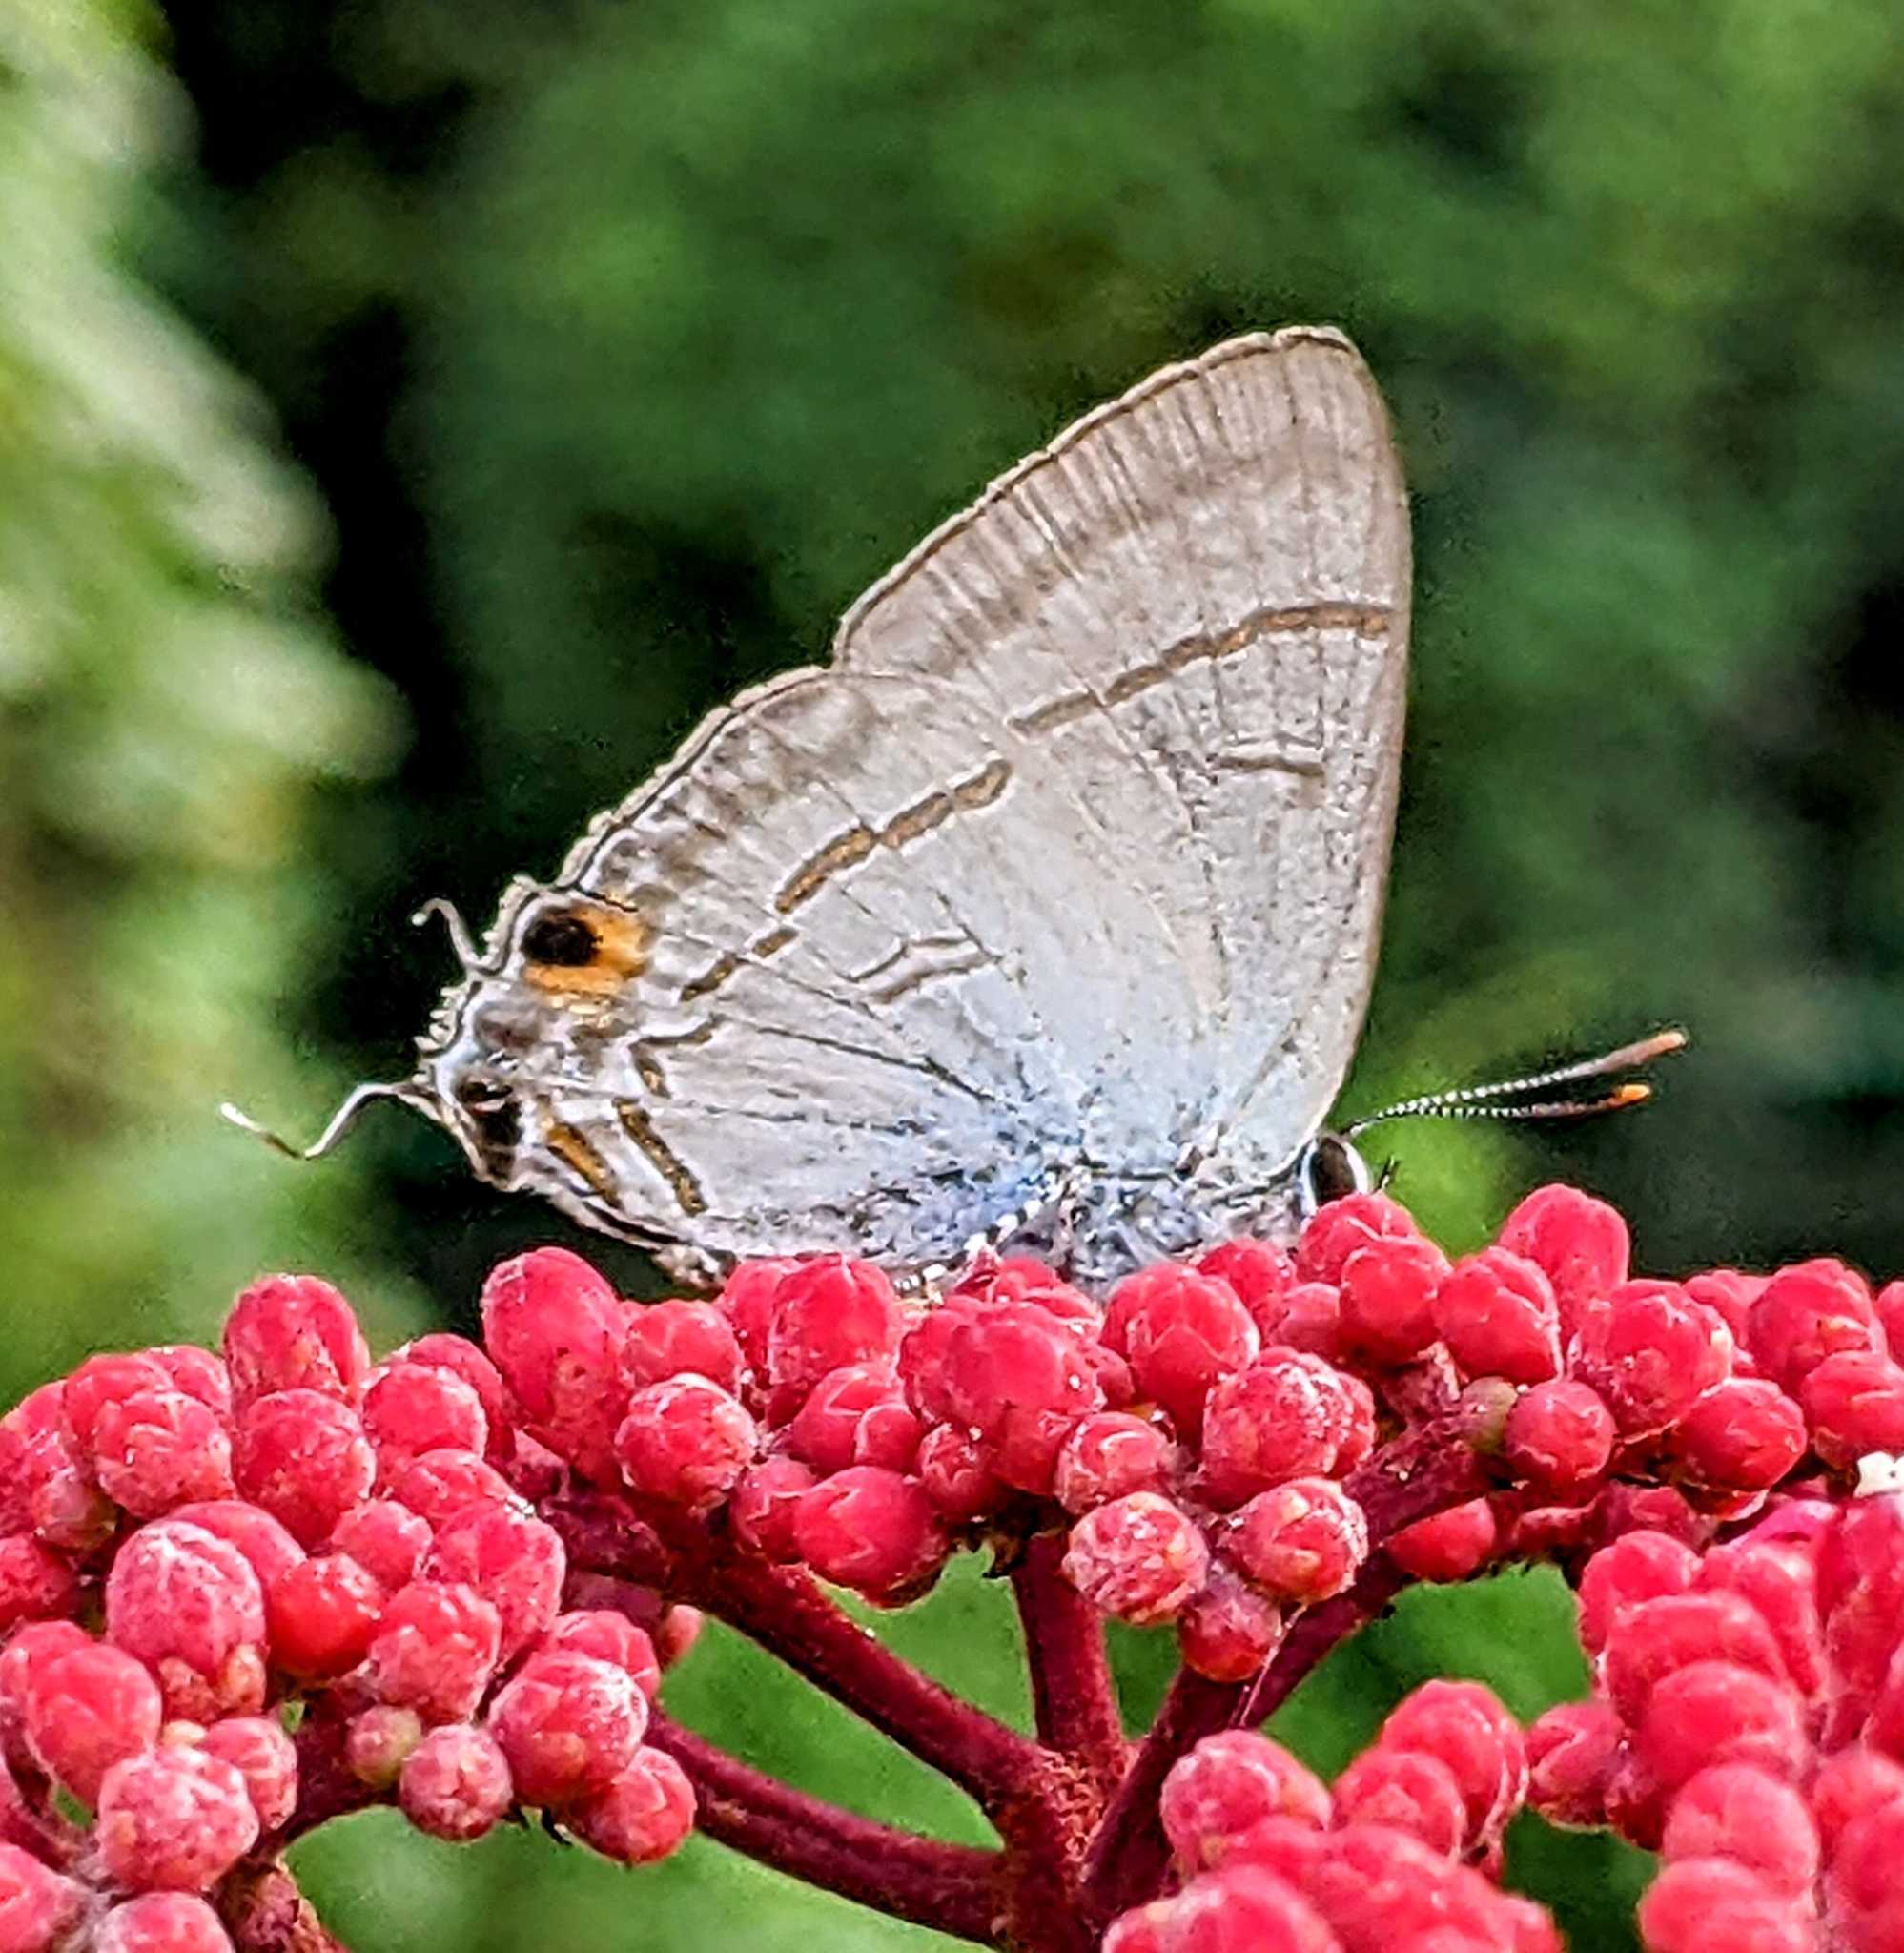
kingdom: Animalia
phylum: Arthropoda
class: Insecta
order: Lepidoptera
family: Lycaenidae
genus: Hypolycaena
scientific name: Hypolycaena erylus
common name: Common tit
